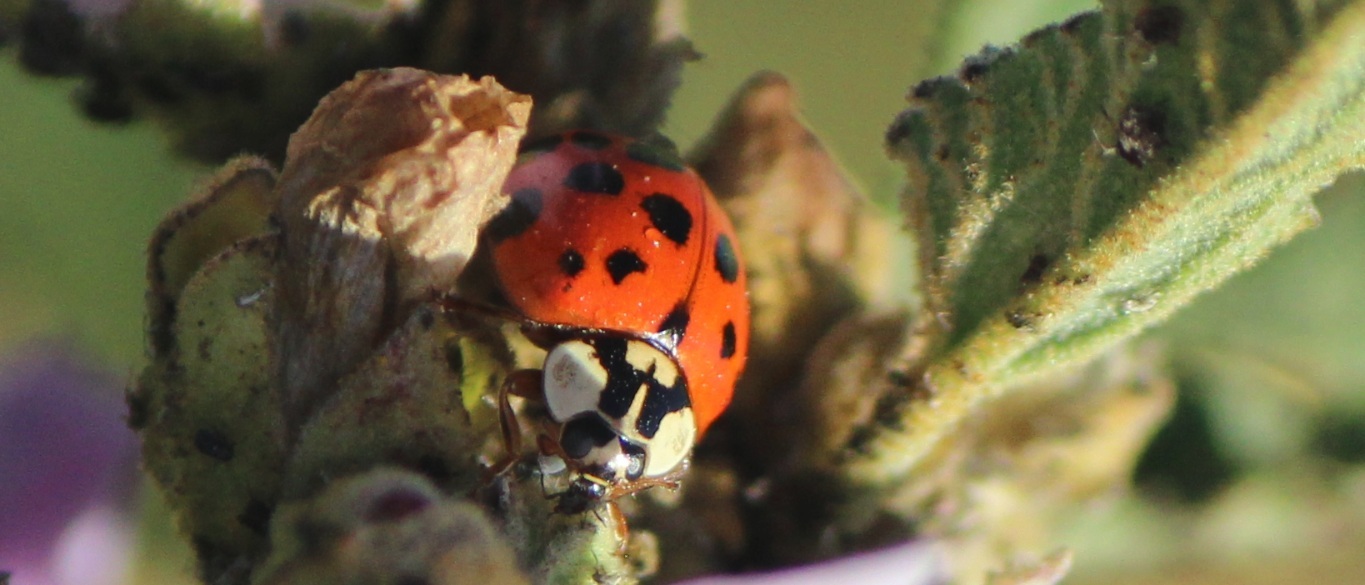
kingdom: Animalia
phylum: Arthropoda
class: Insecta
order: Coleoptera
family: Coccinellidae
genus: Harmonia
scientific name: Harmonia axyridis
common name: Harlequin ladybird
